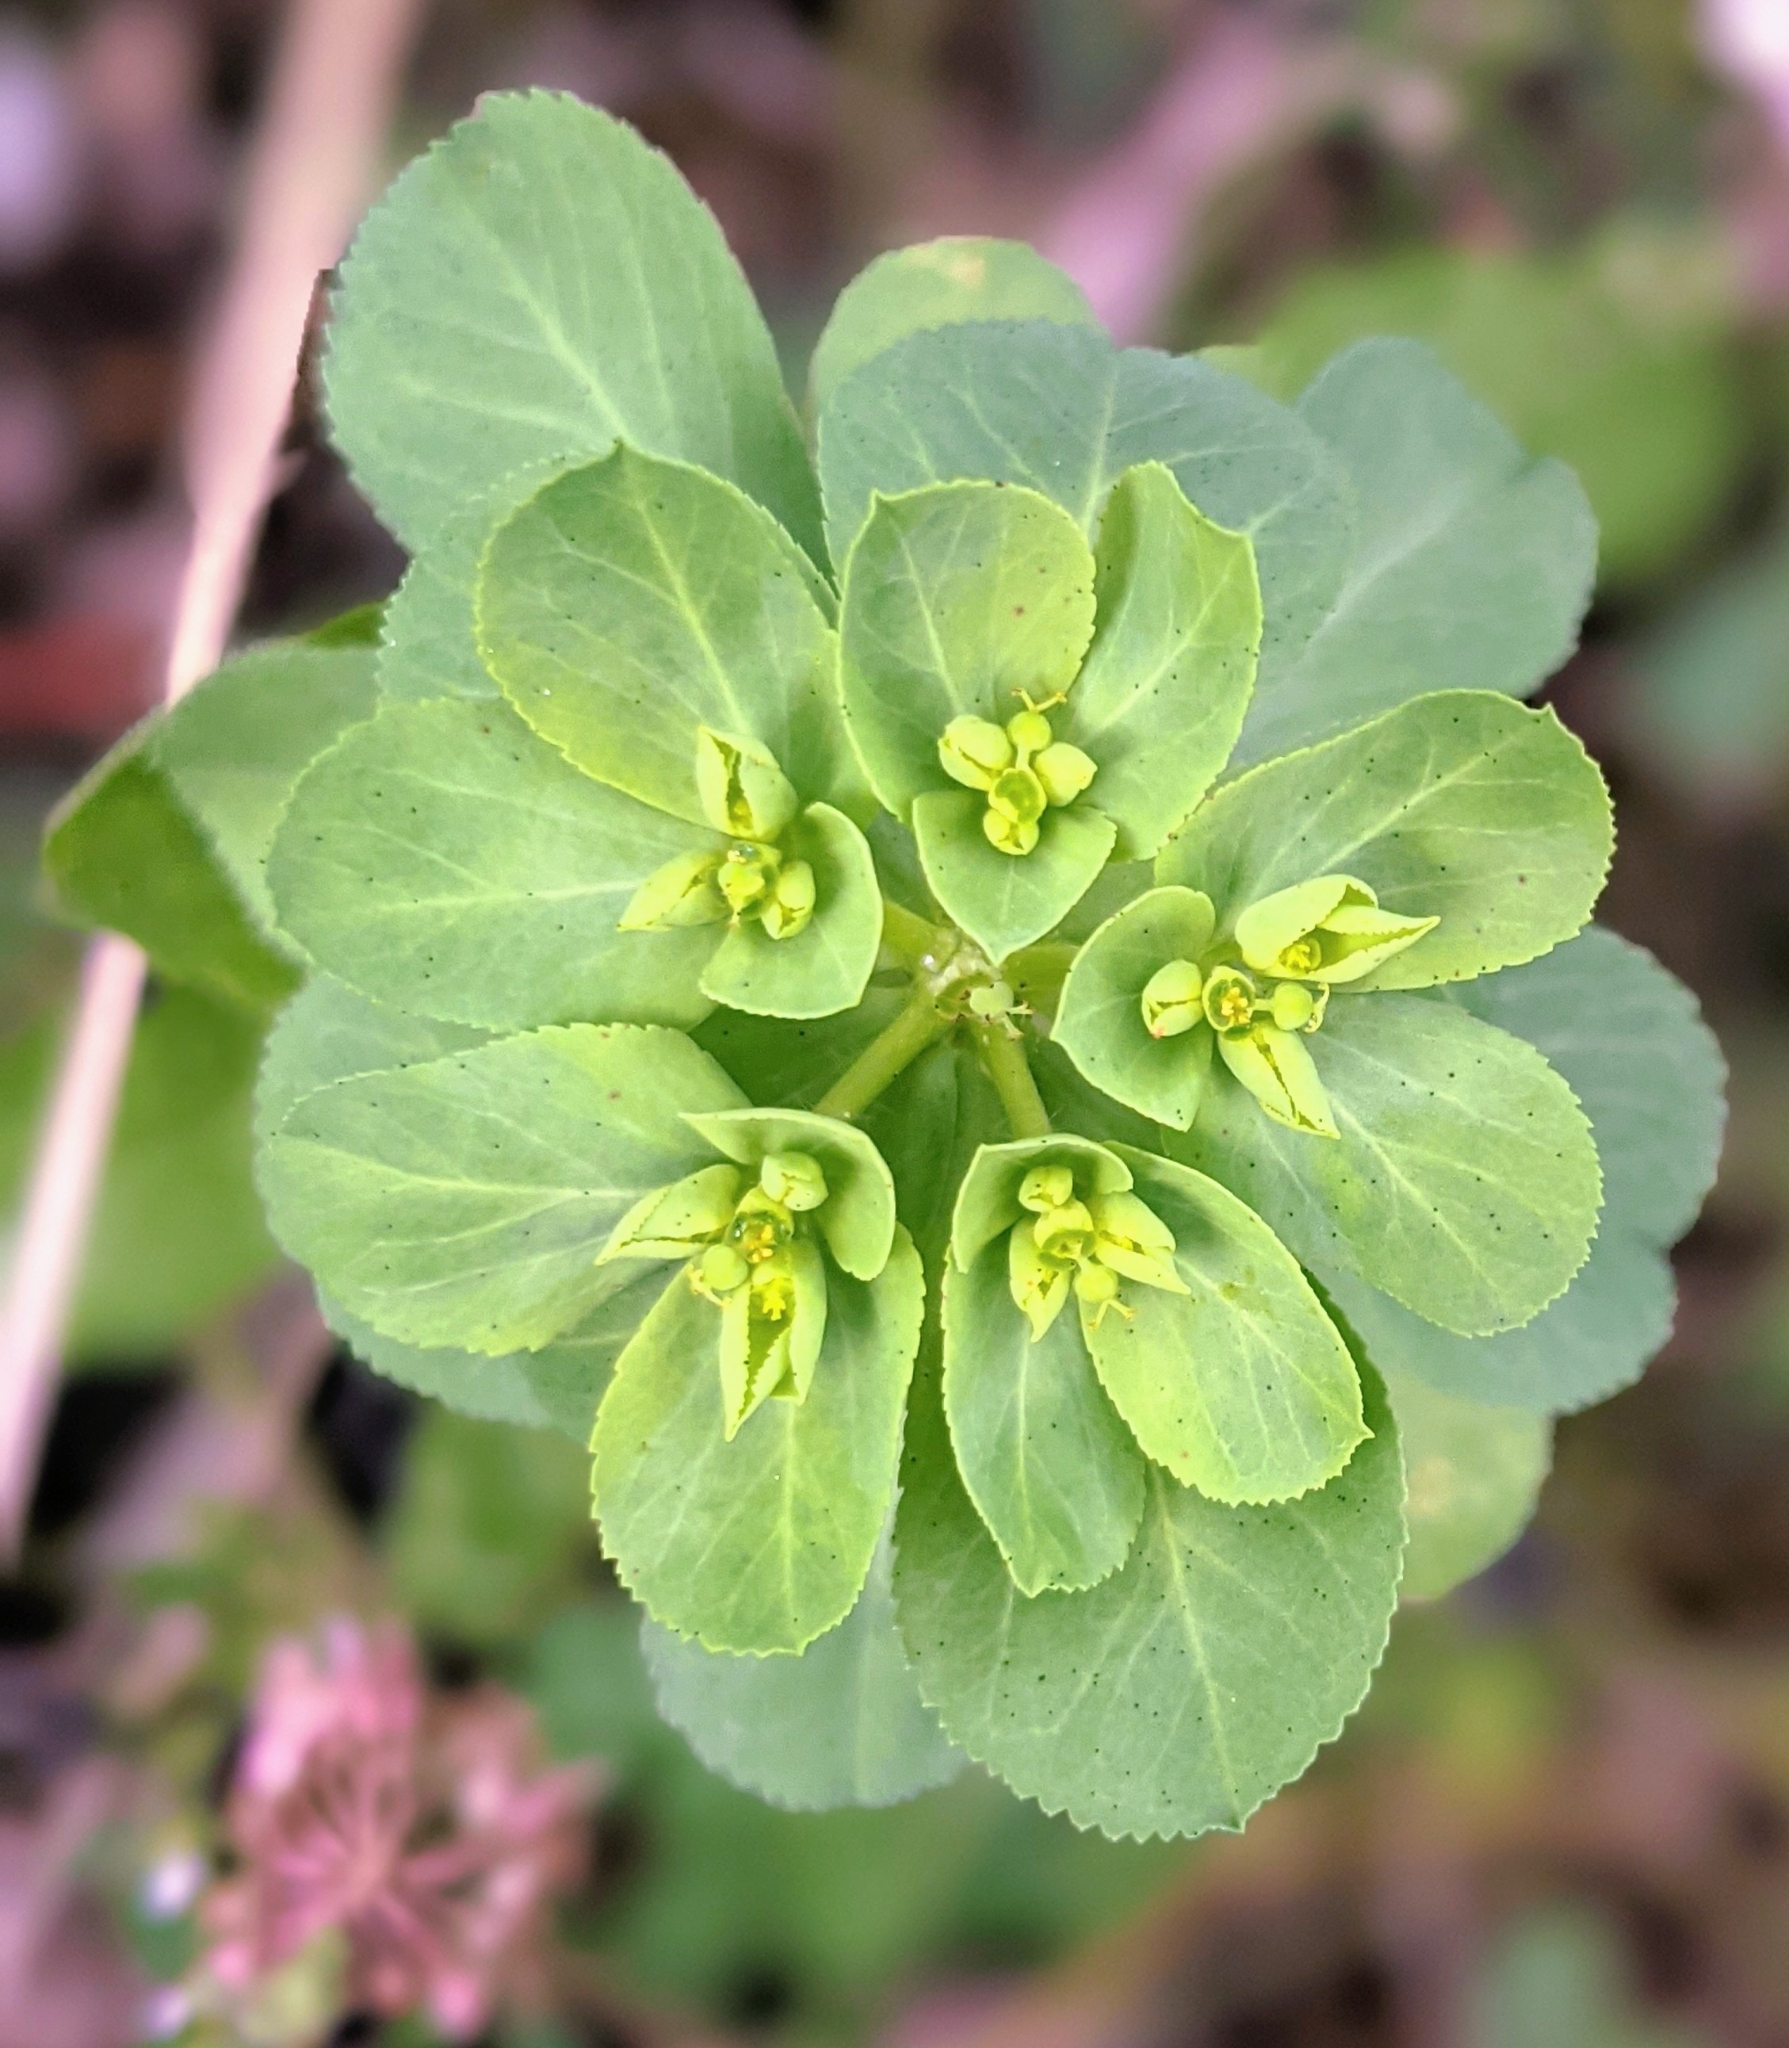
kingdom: Plantae
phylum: Tracheophyta
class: Magnoliopsida
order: Malpighiales
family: Euphorbiaceae
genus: Euphorbia
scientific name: Euphorbia helioscopia
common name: Sun spurge
